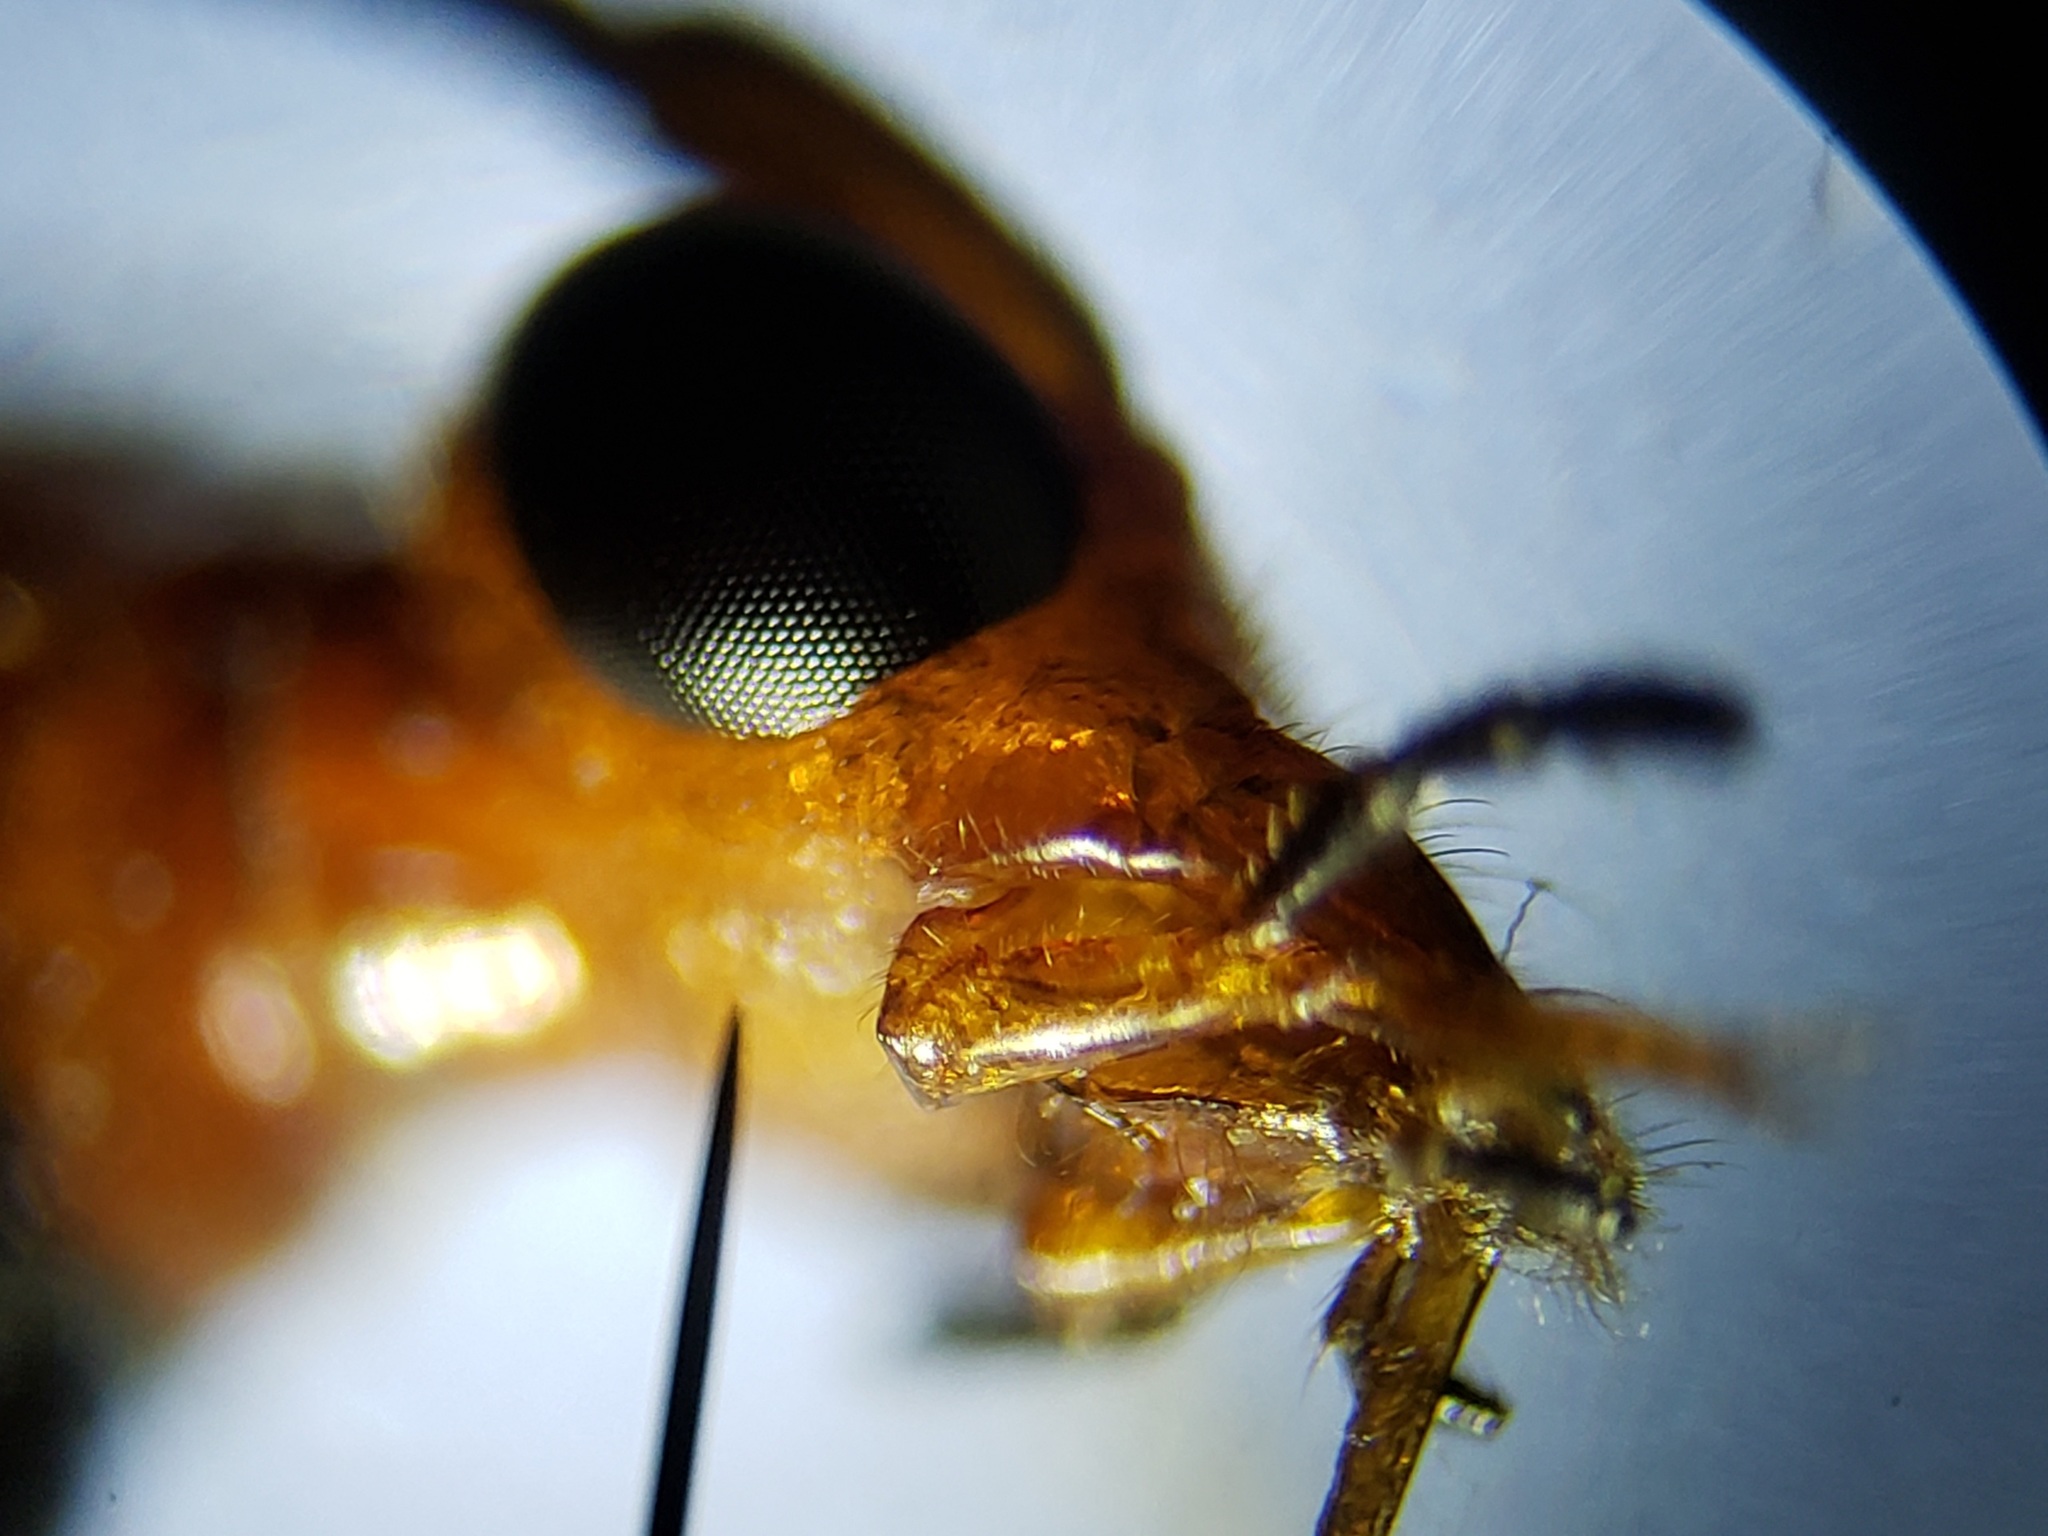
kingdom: Animalia
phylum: Arthropoda
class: Insecta
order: Coleoptera
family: Cerambycidae
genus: Strangalia
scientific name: Strangalia sexnotata
